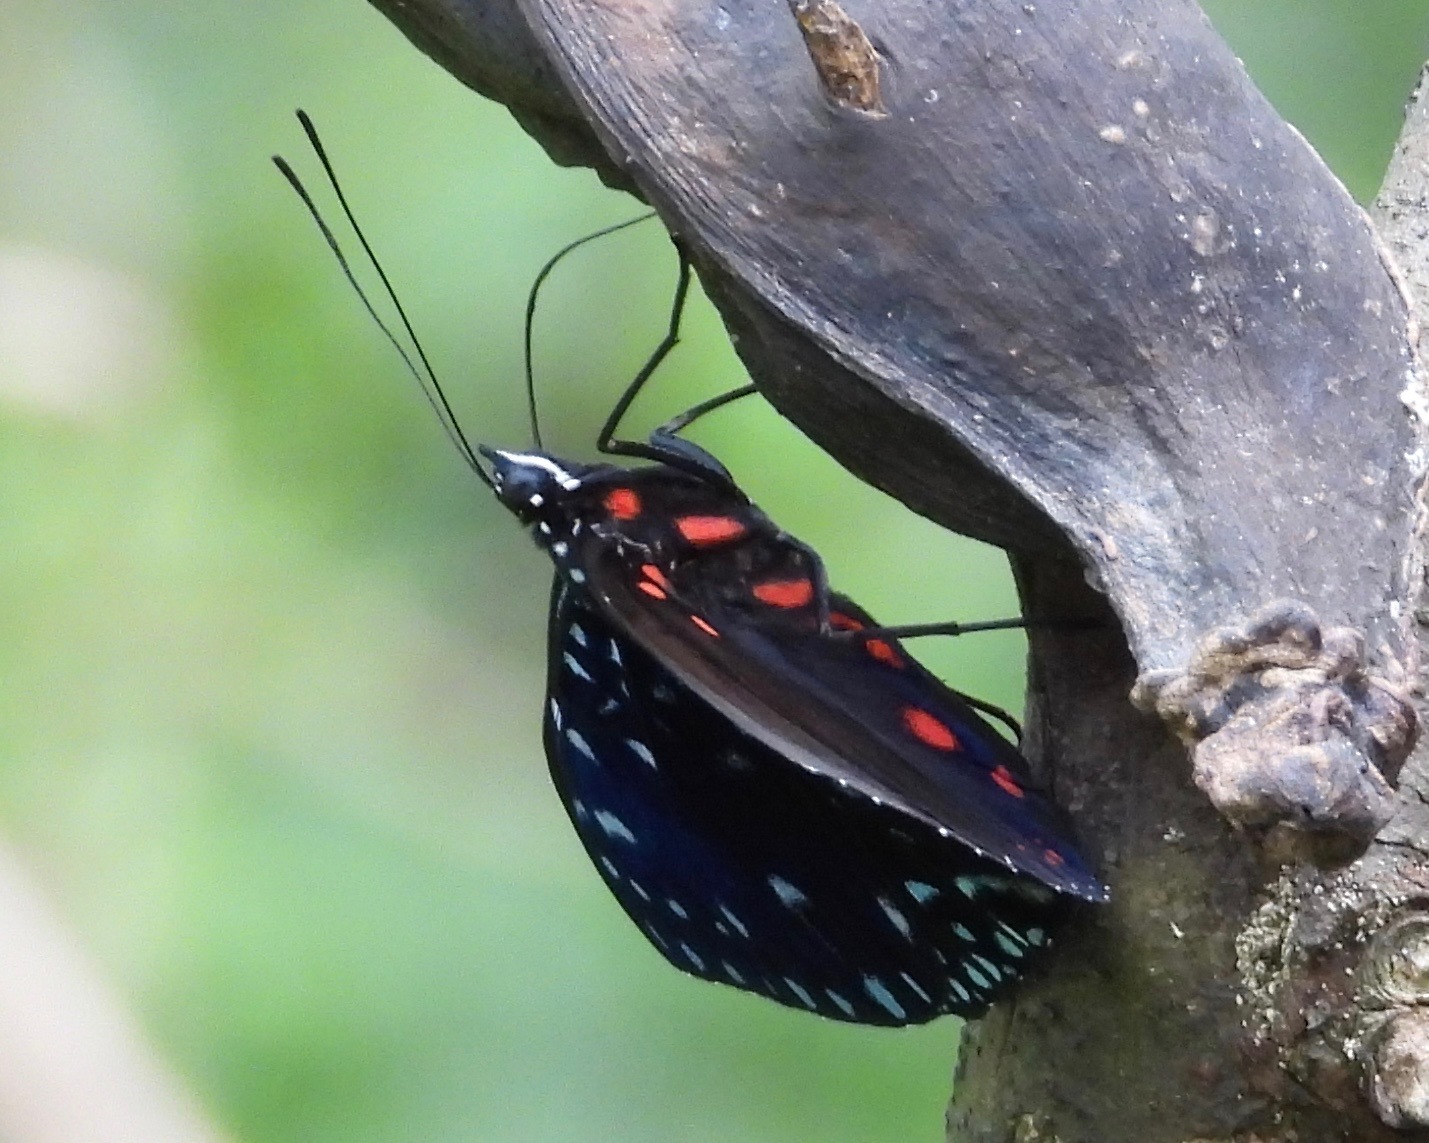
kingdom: Animalia
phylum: Arthropoda
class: Insecta
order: Lepidoptera
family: Nymphalidae
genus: Hamadryas
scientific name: Hamadryas laodamia
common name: Starry night cracker
